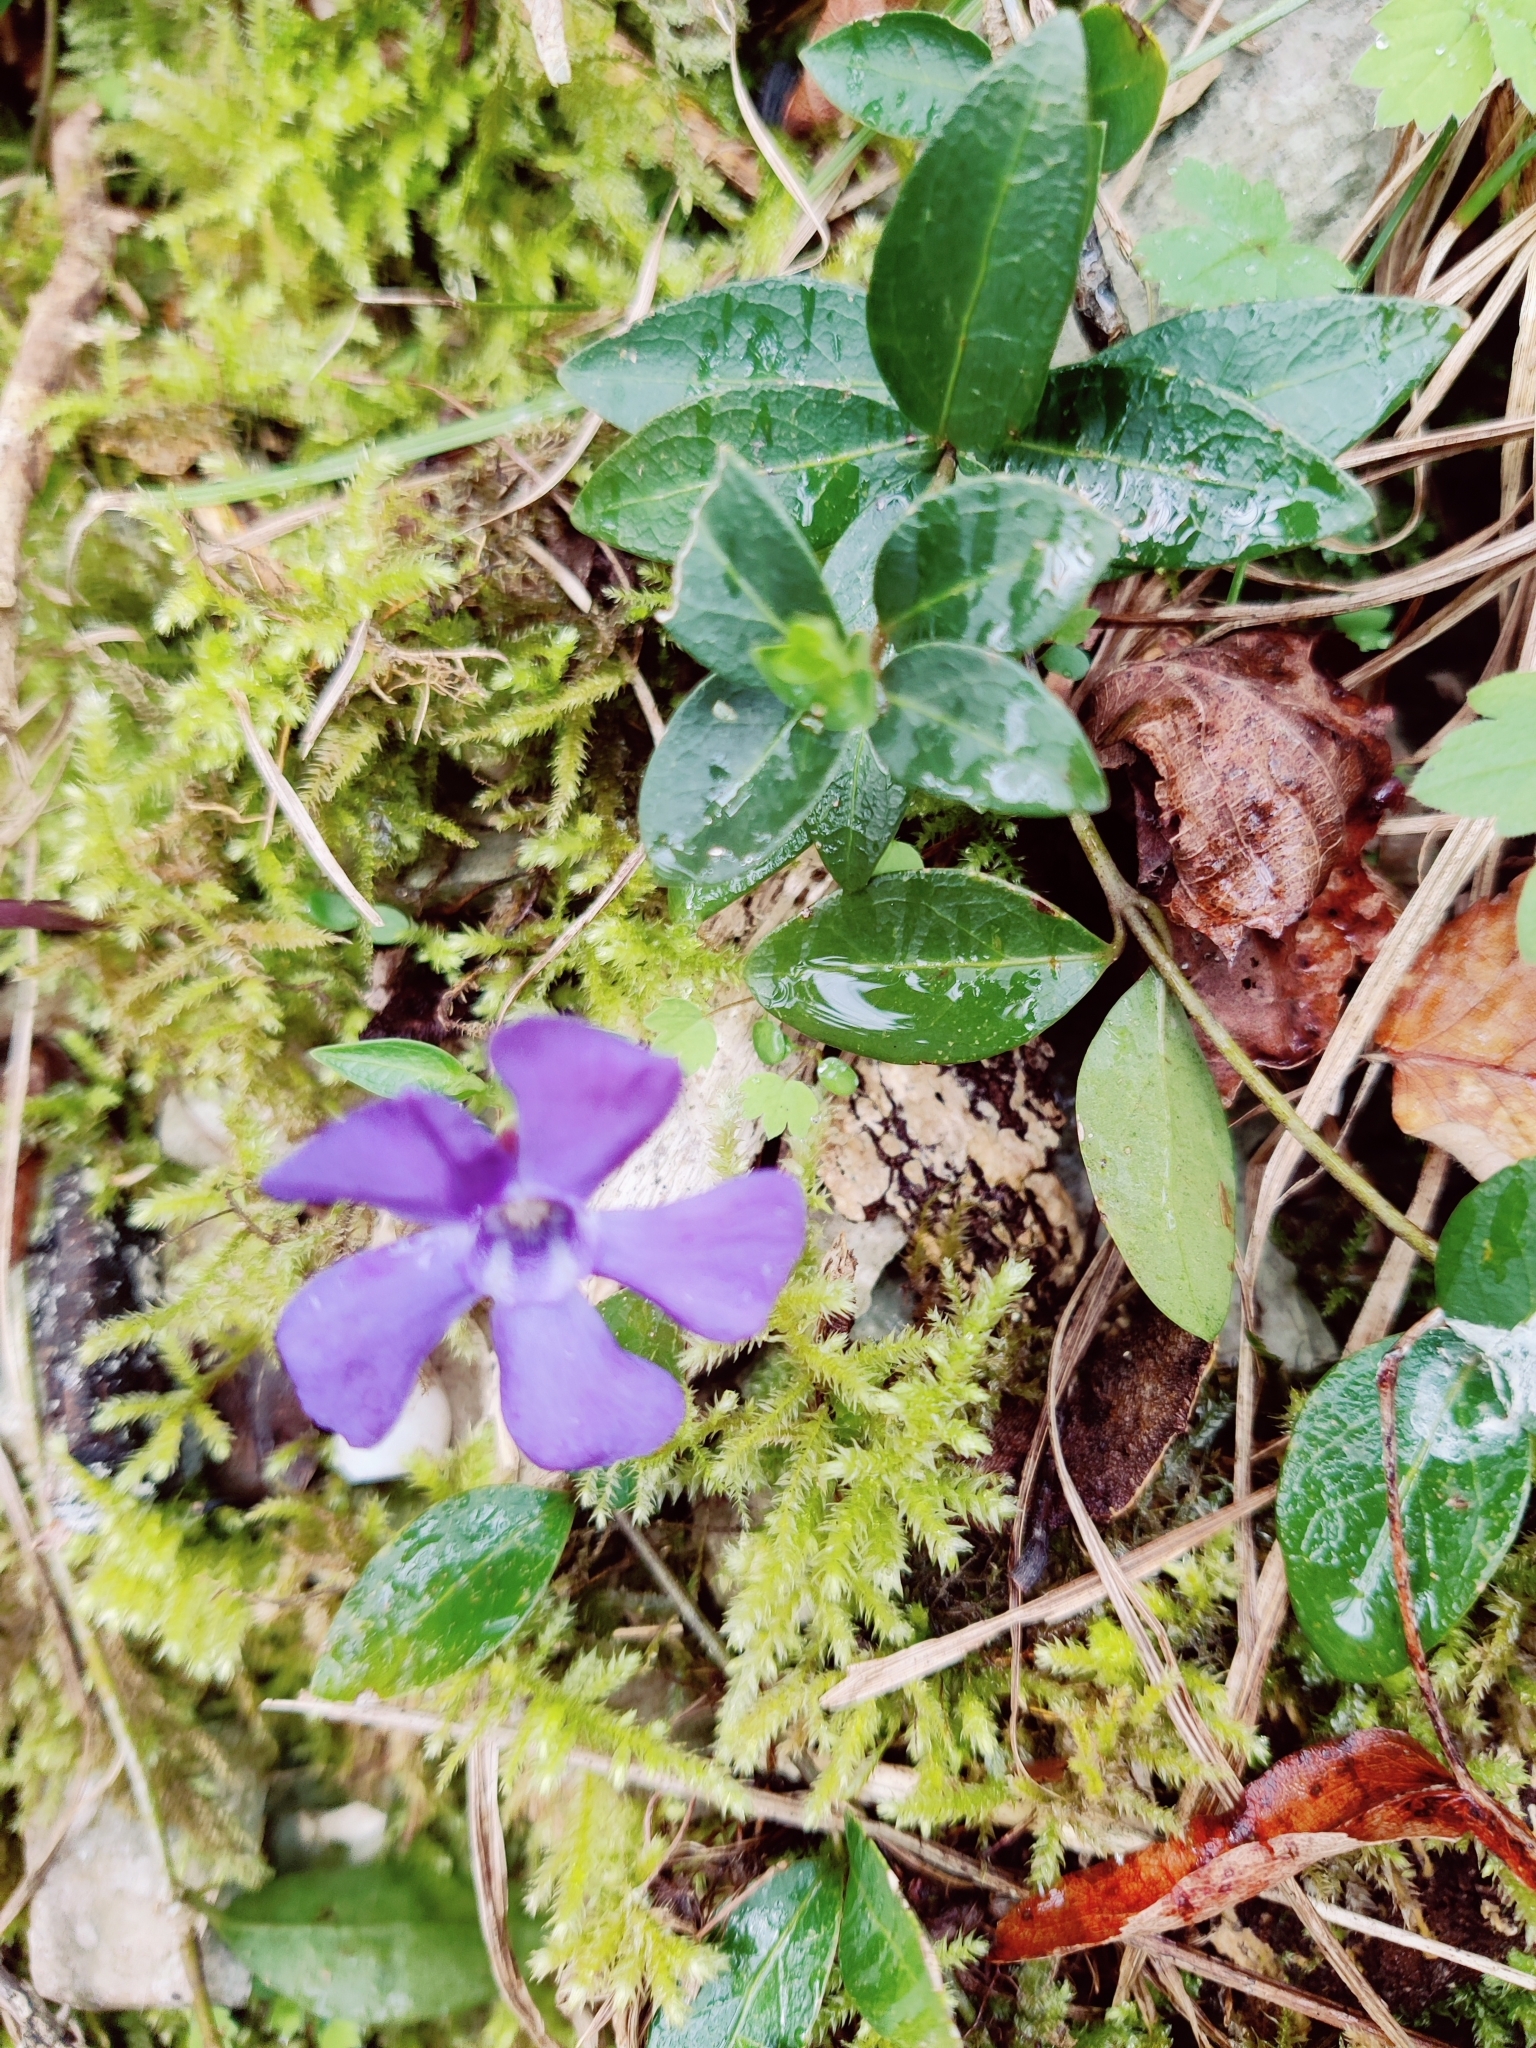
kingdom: Plantae
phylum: Tracheophyta
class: Magnoliopsida
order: Gentianales
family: Apocynaceae
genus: Vinca
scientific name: Vinca minor
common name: Lesser periwinkle
